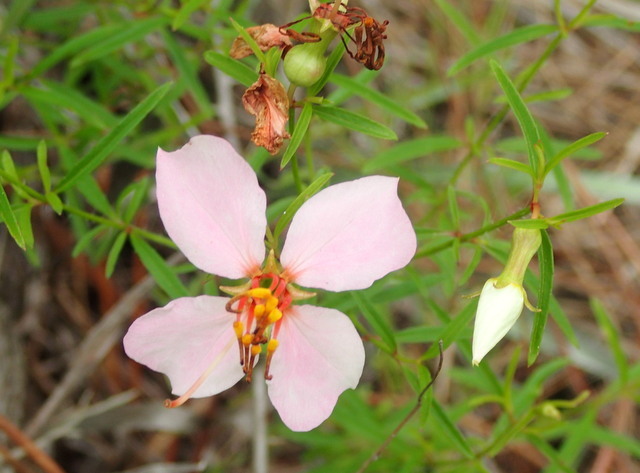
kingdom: Plantae
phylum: Tracheophyta
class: Magnoliopsida
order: Myrtales
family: Melastomataceae
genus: Rhexia
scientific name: Rhexia mariana
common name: Dull meadow-pitcher
